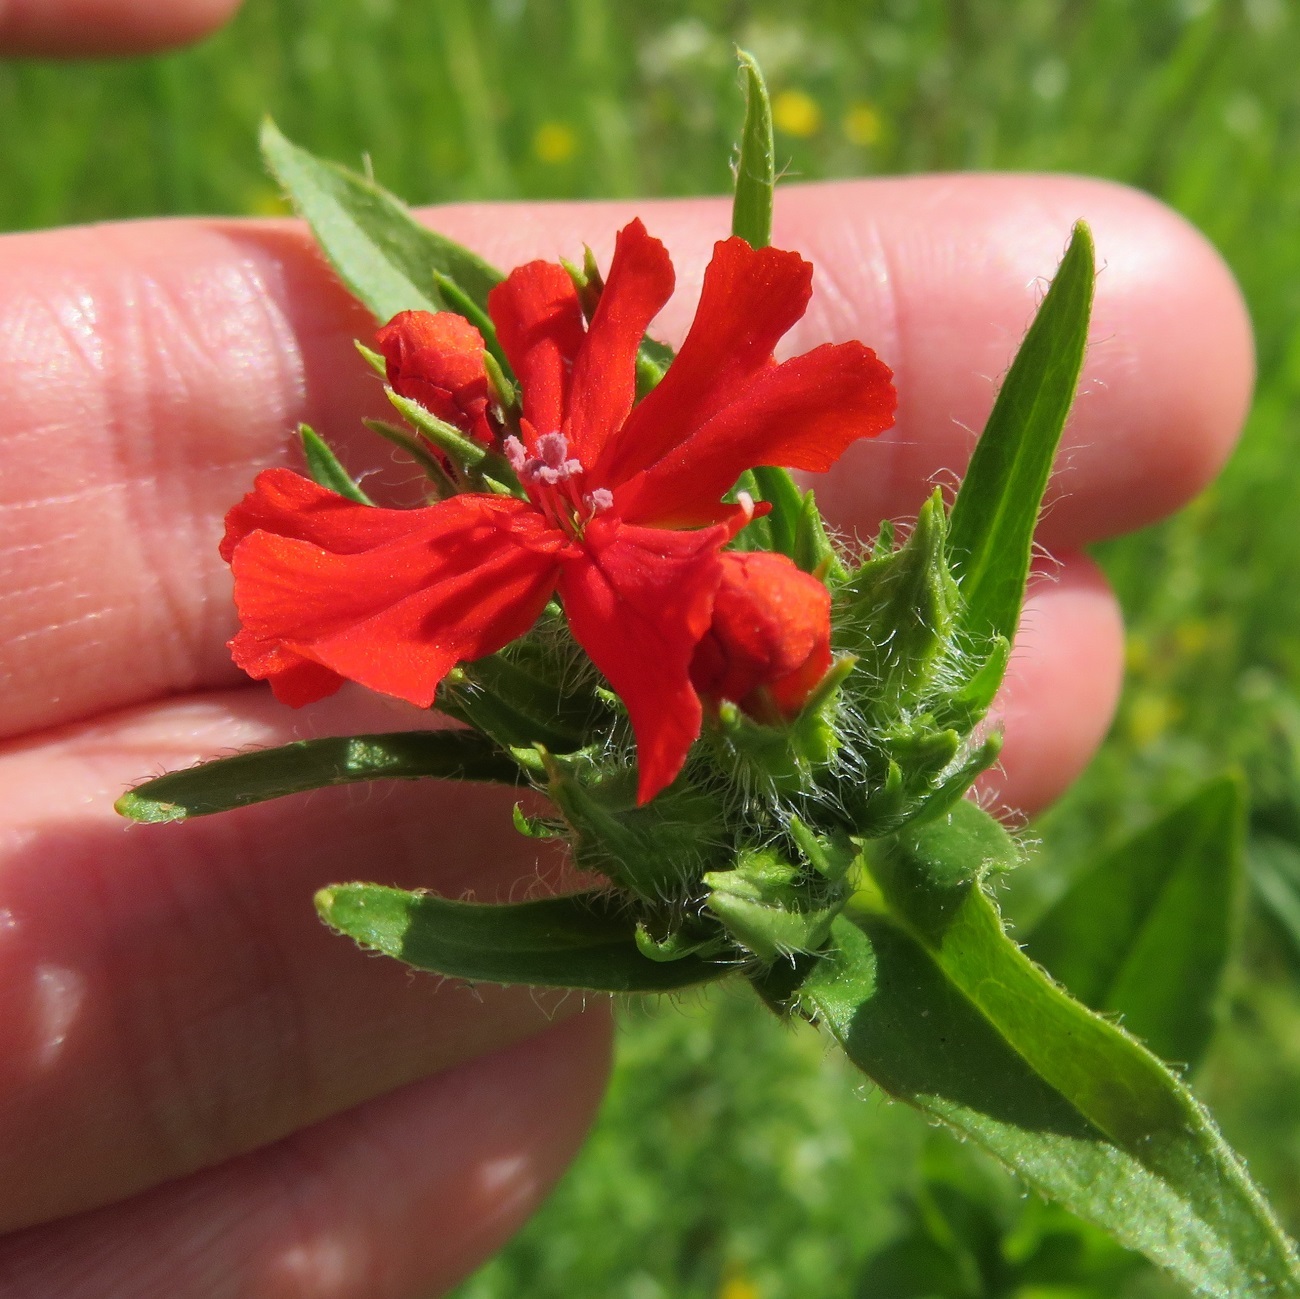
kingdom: Plantae
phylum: Tracheophyta
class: Magnoliopsida
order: Caryophyllales
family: Caryophyllaceae
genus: Silene
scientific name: Silene chalcedonica
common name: Maltese-cross
